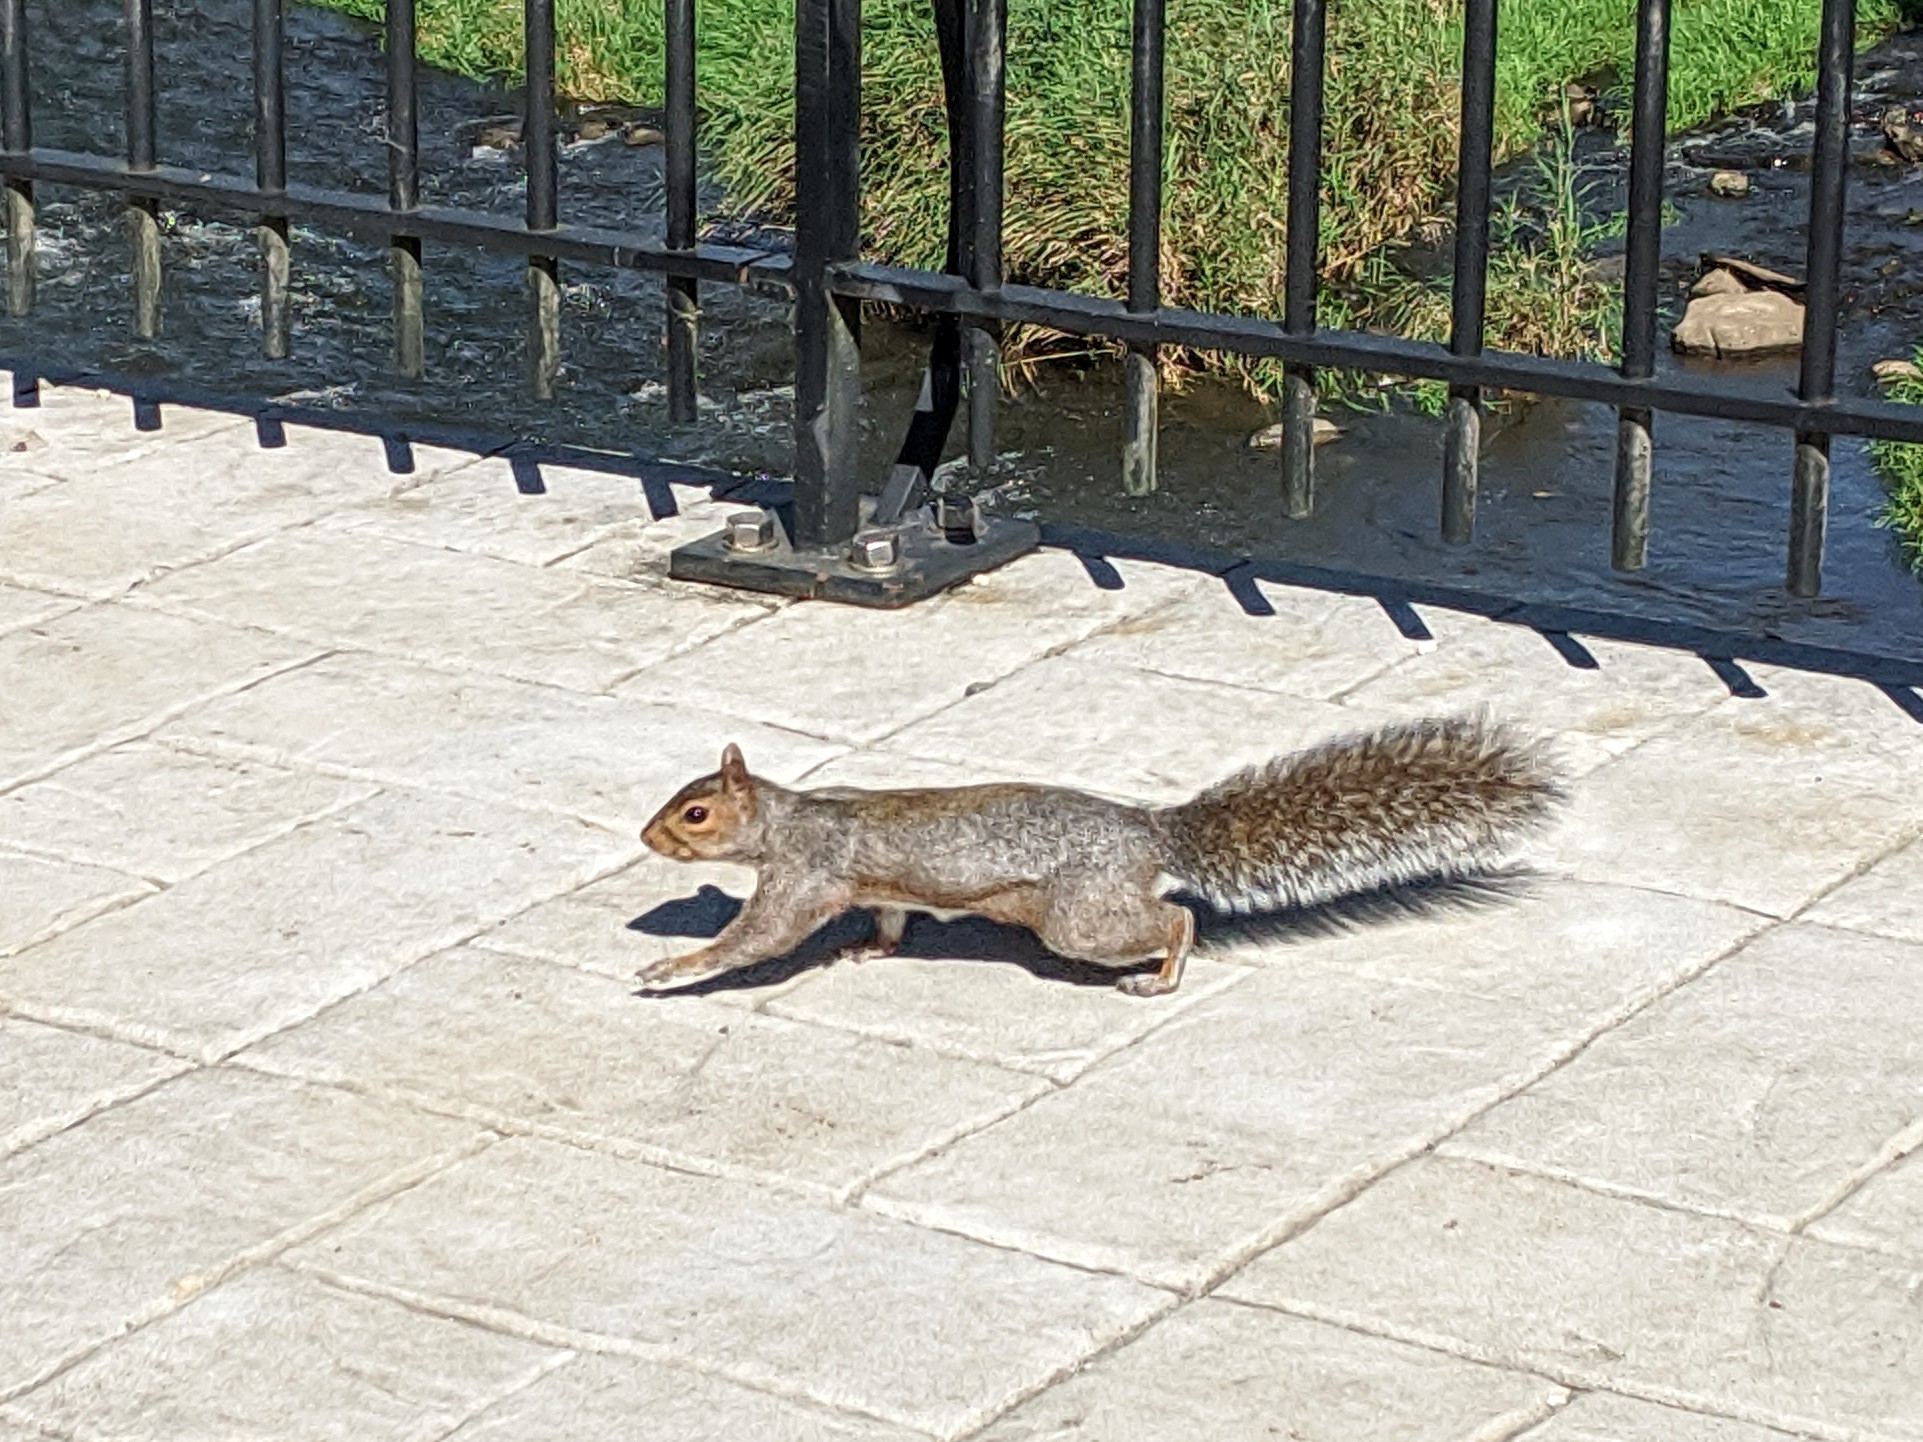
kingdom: Animalia
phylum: Chordata
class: Mammalia
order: Rodentia
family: Sciuridae
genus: Sciurus
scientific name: Sciurus carolinensis
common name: Eastern gray squirrel
